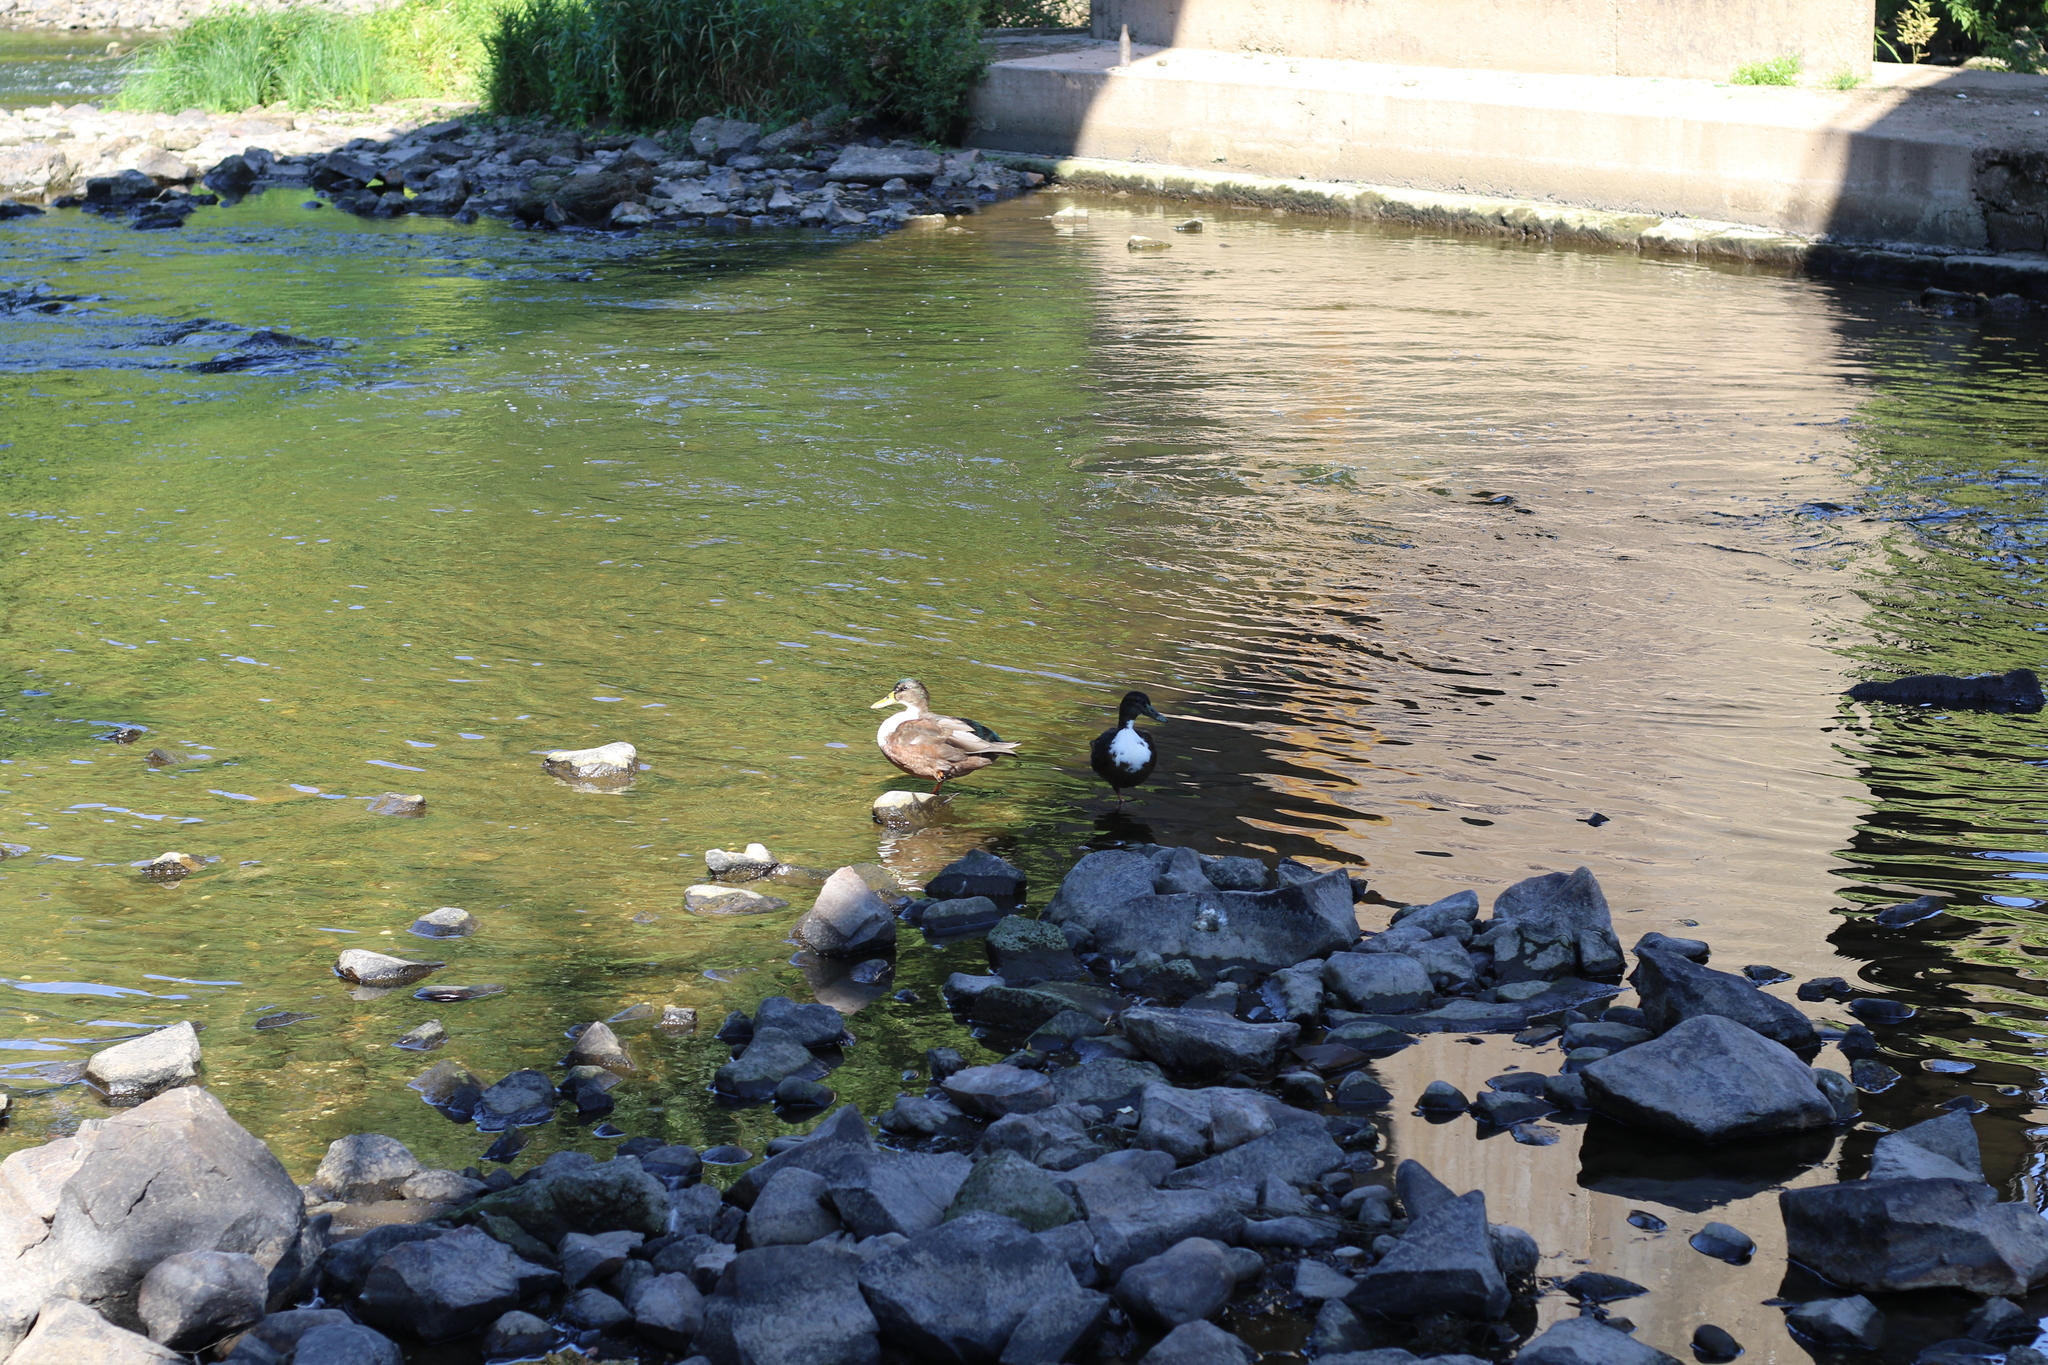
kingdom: Animalia
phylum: Chordata
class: Aves
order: Anseriformes
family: Anatidae
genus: Anas
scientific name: Anas platyrhynchos
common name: Mallard
